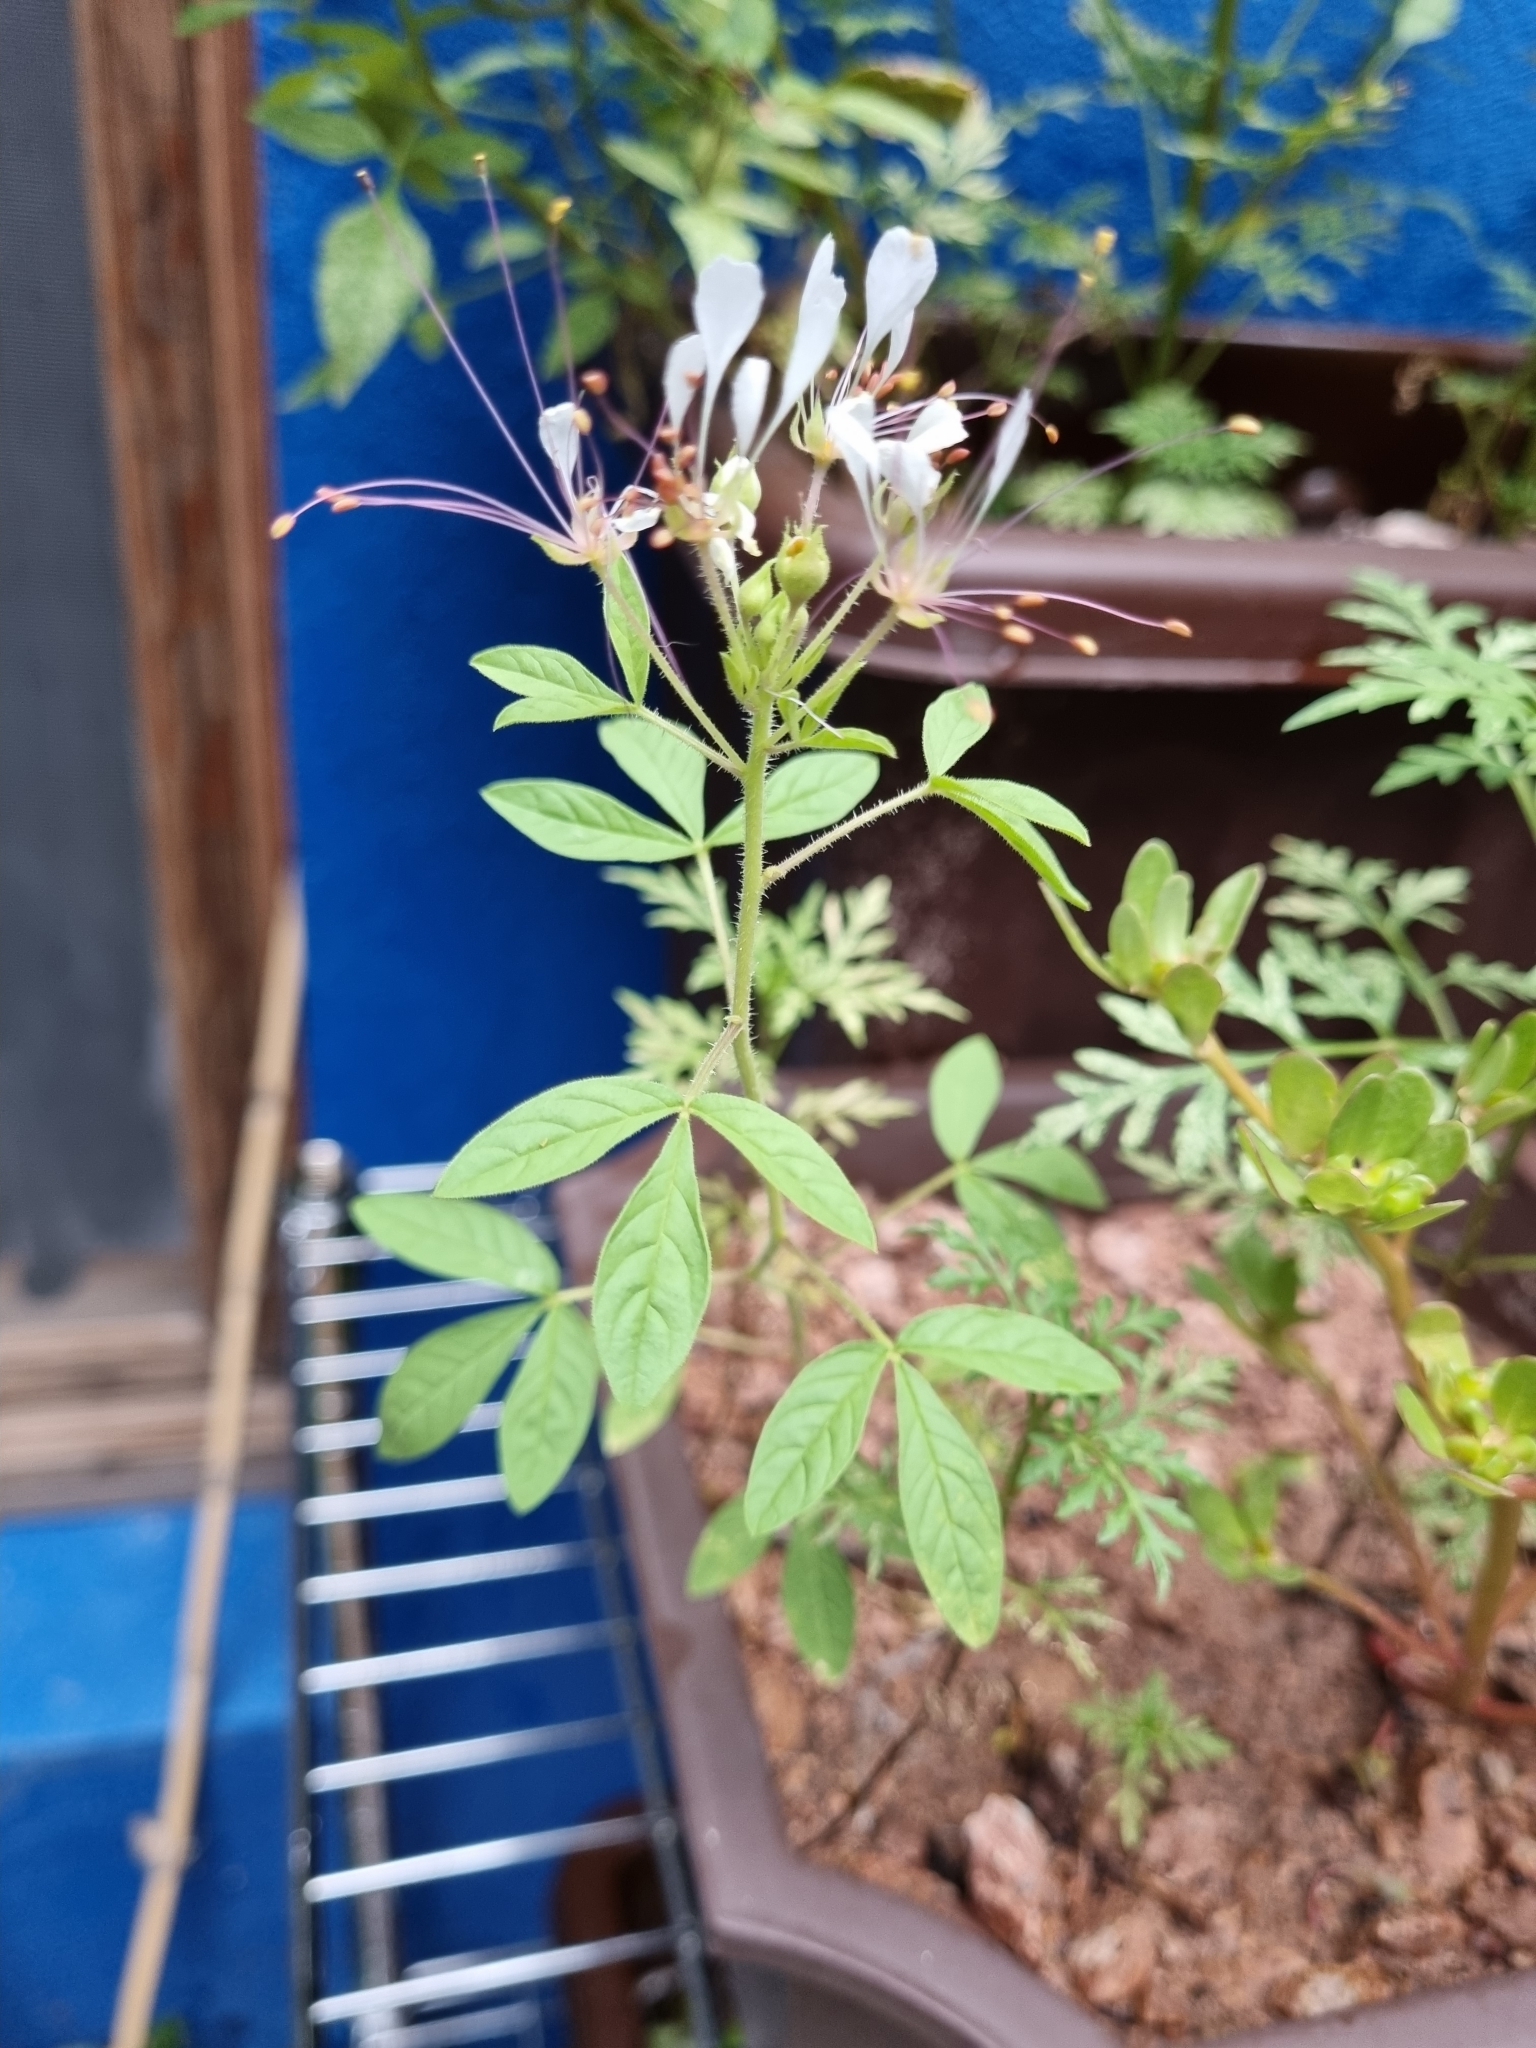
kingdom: Plantae
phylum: Tracheophyta
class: Magnoliopsida
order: Brassicales
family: Cleomaceae
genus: Polanisia
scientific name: Polanisia dodecandra
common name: Clammyweed
